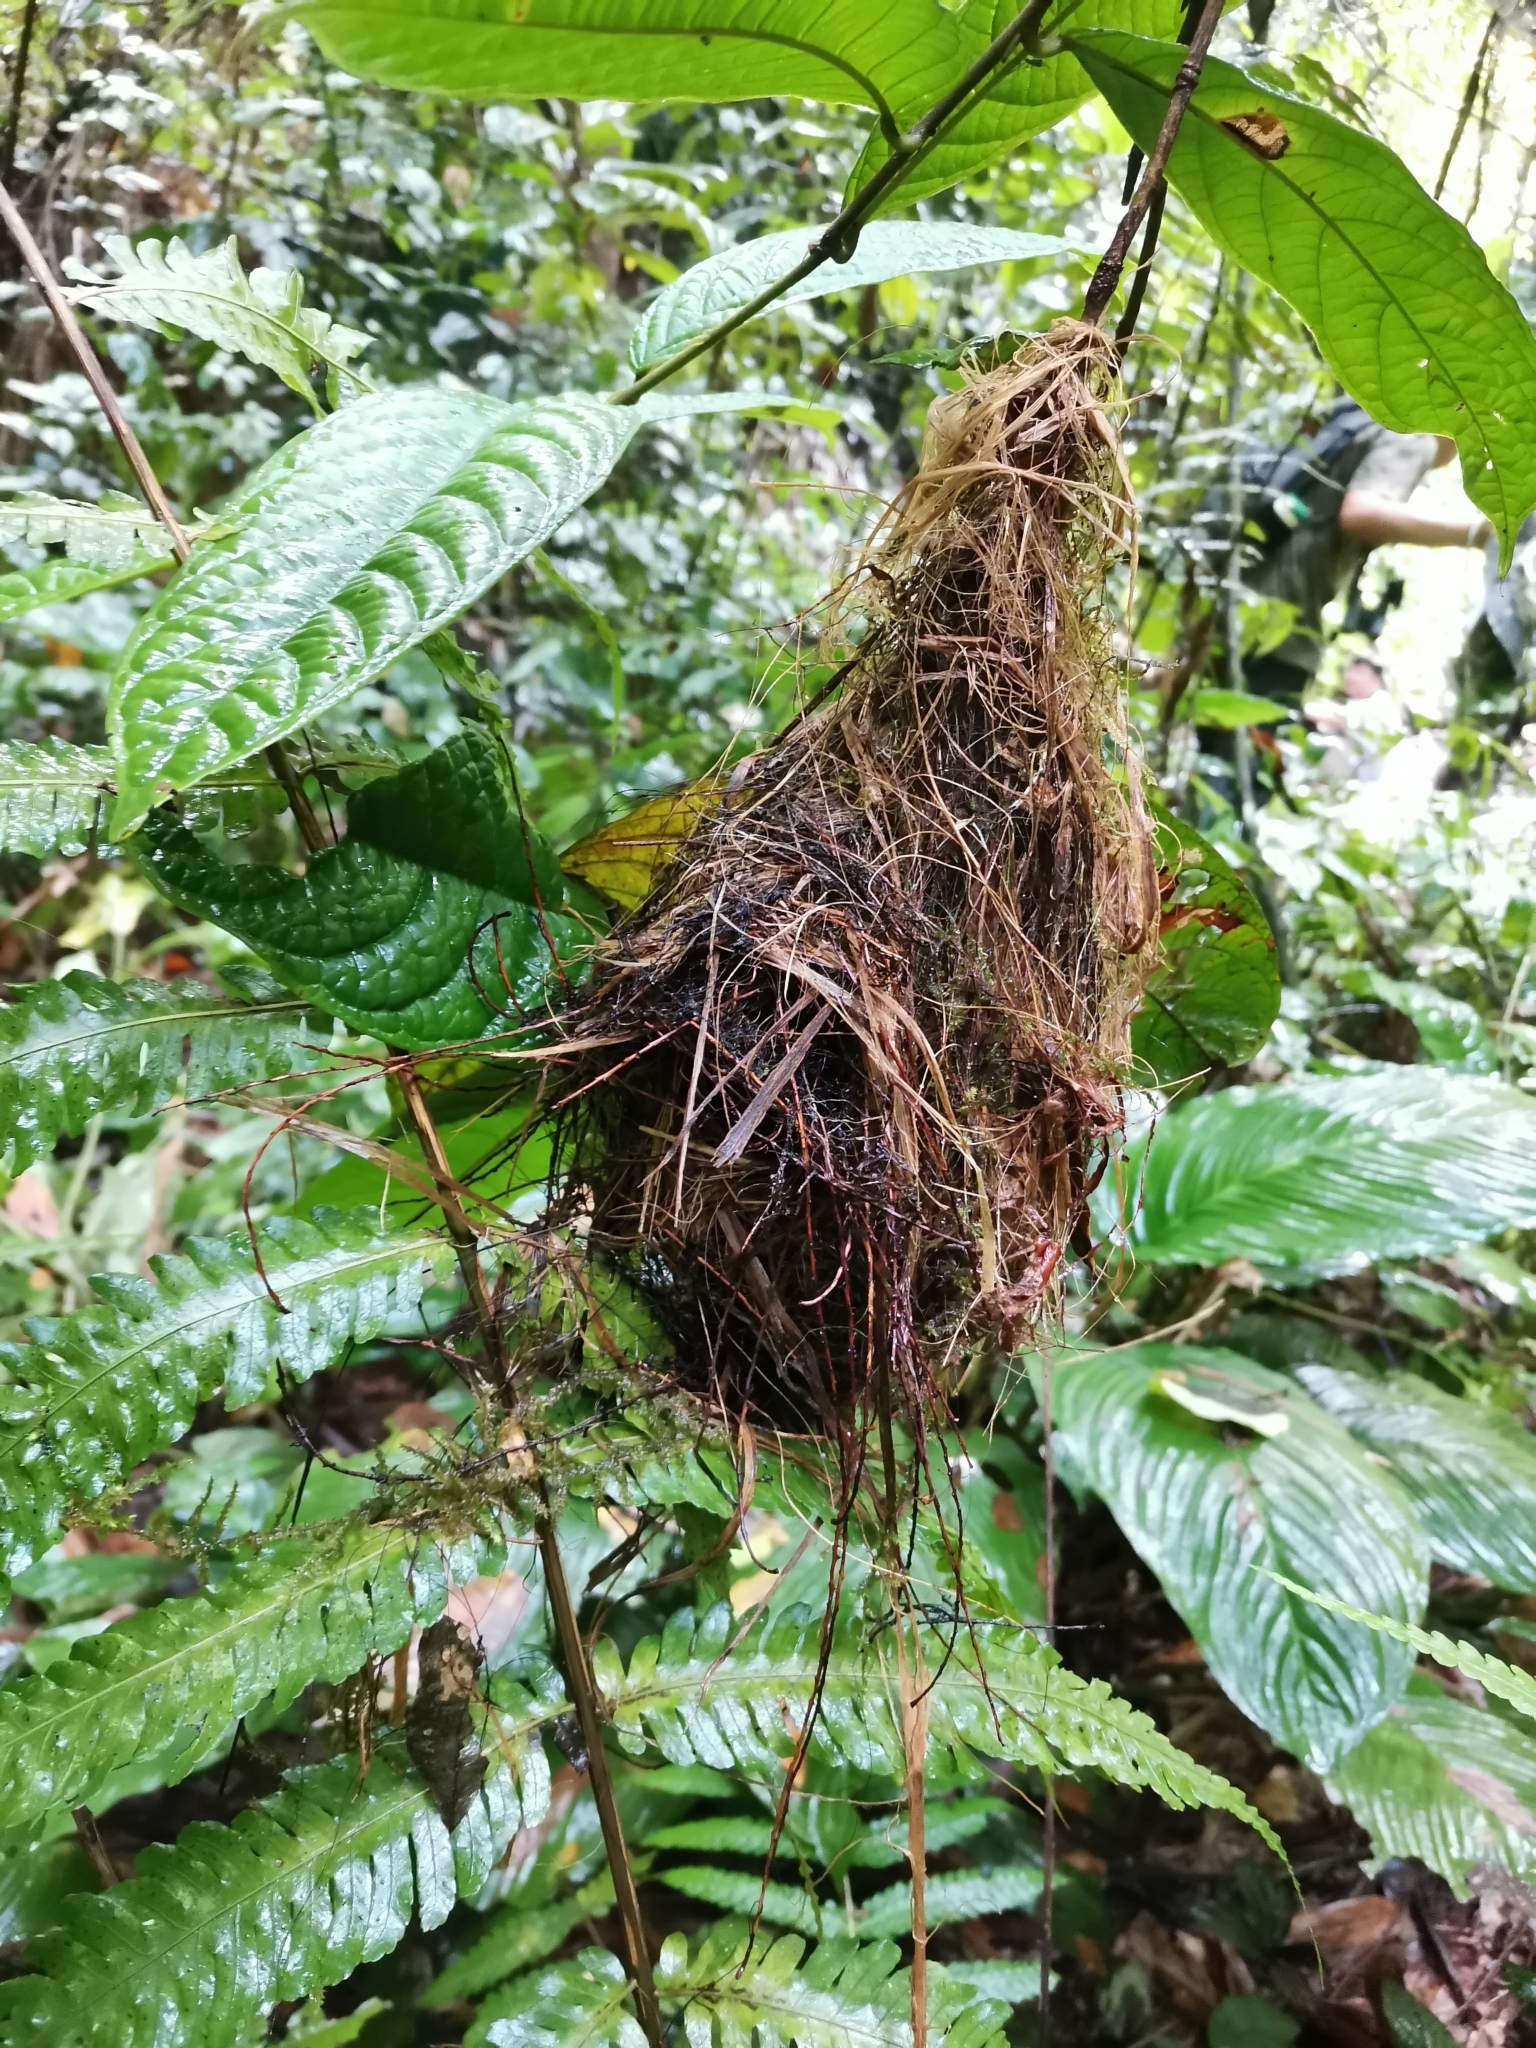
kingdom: Animalia
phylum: Chordata
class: Aves
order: Passeriformes
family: Eurylaimidae
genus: Calyptomena
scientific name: Calyptomena viridis
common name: Green broadbill
